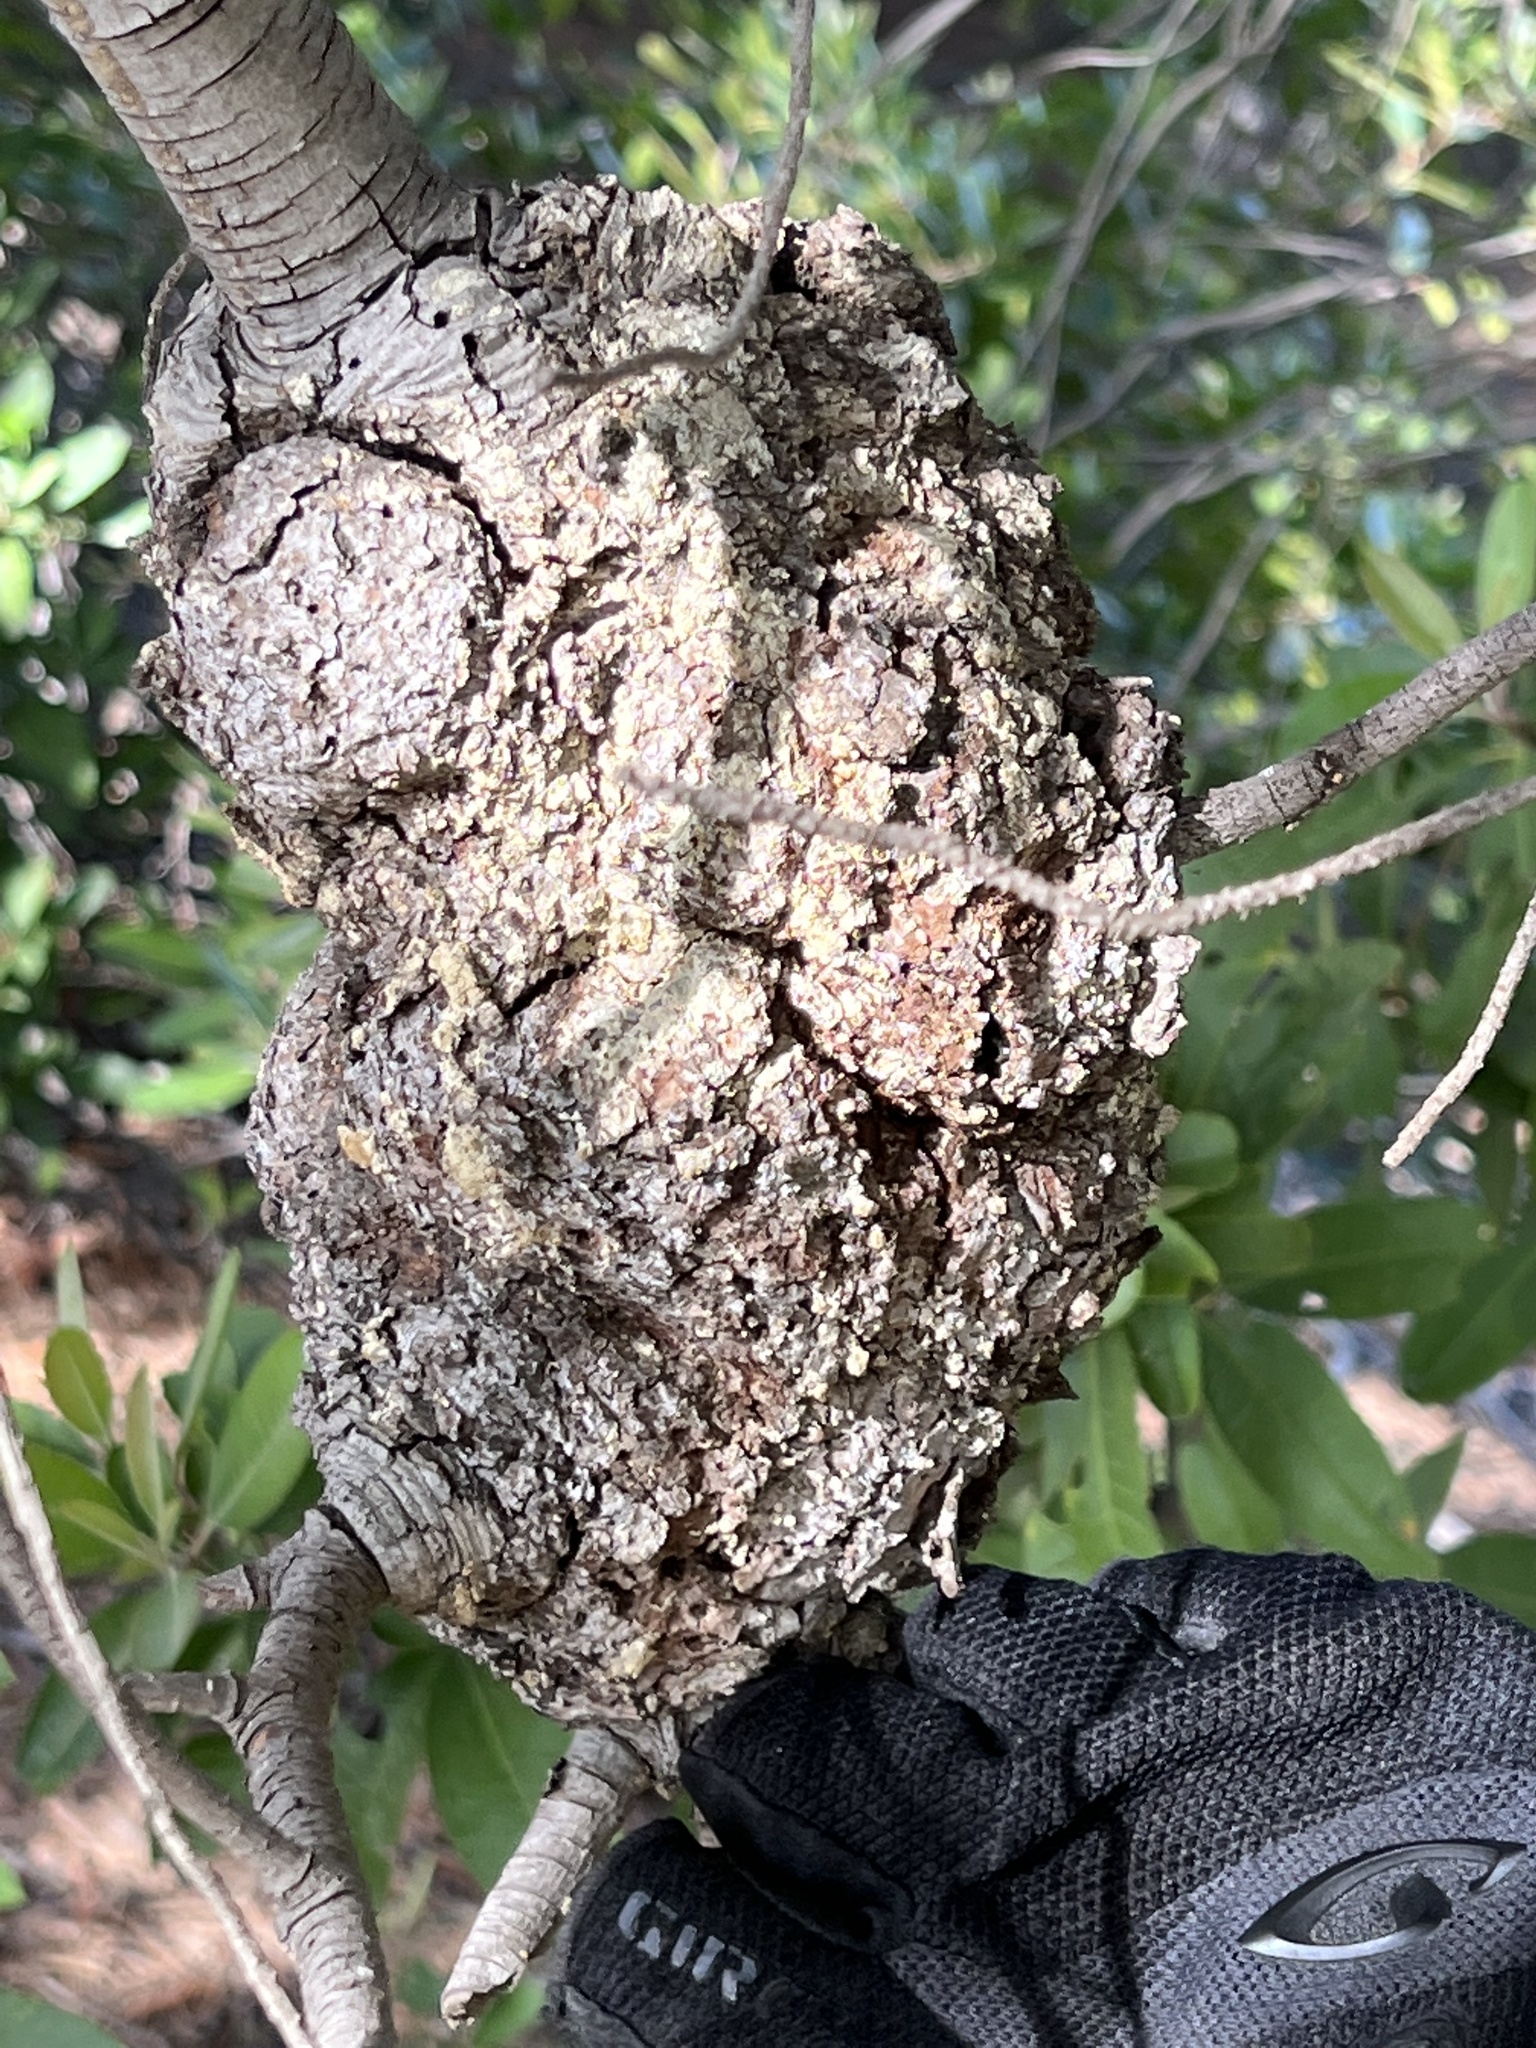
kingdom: Fungi
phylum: Basidiomycota
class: Pucciniomycetes
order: Pucciniales
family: Cronartiaceae
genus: Cronartium
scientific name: Cronartium harknessii
